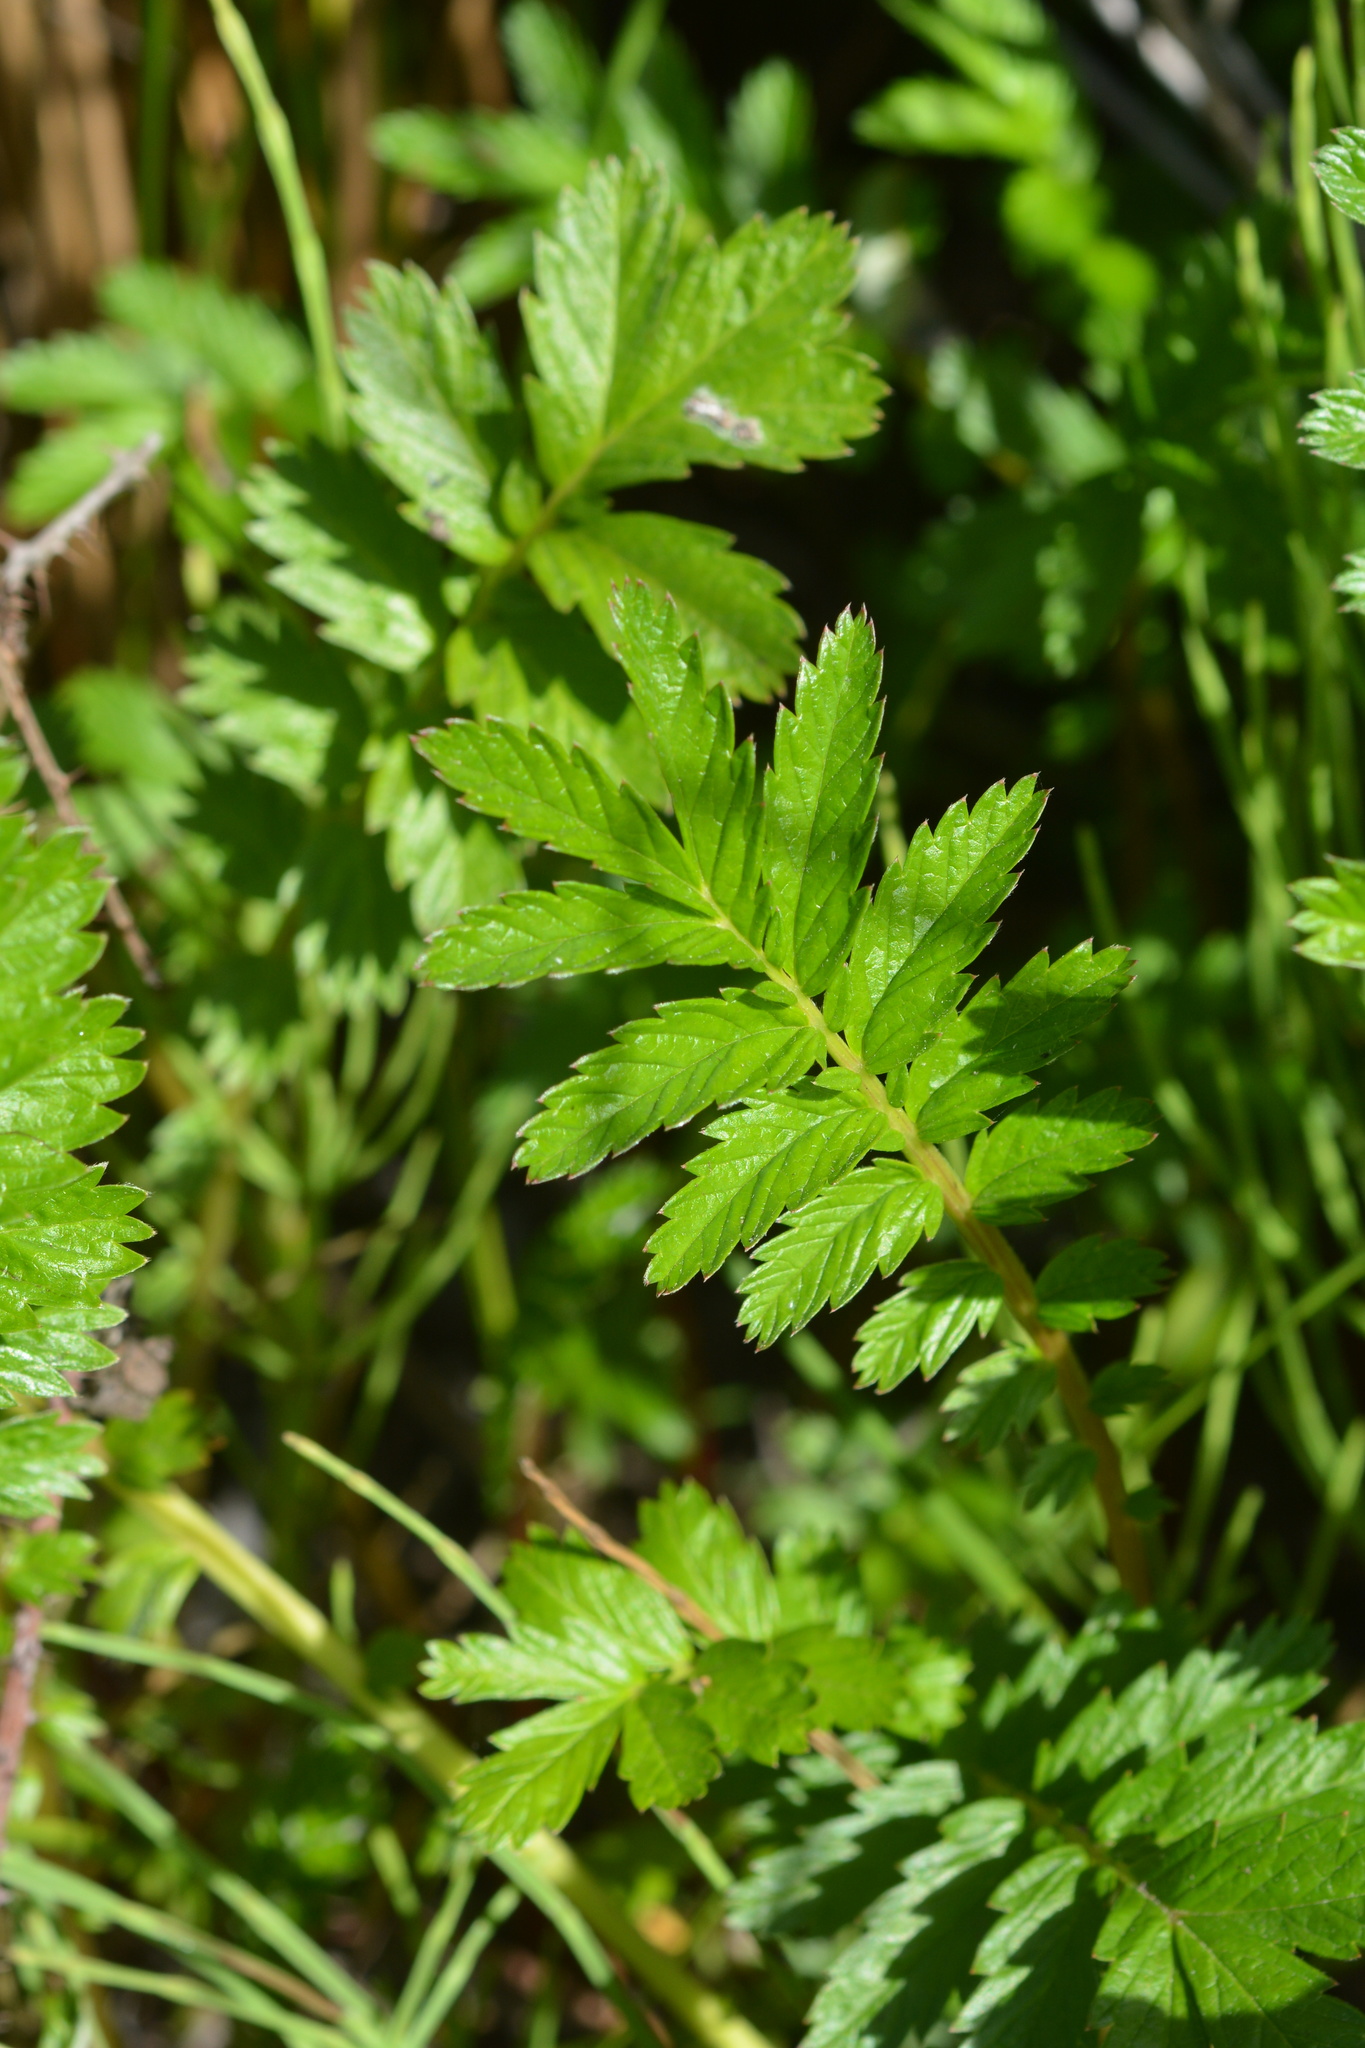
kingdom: Plantae
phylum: Tracheophyta
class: Magnoliopsida
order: Rosales
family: Rosaceae
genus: Argentina
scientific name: Argentina anserina
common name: Common silverweed
